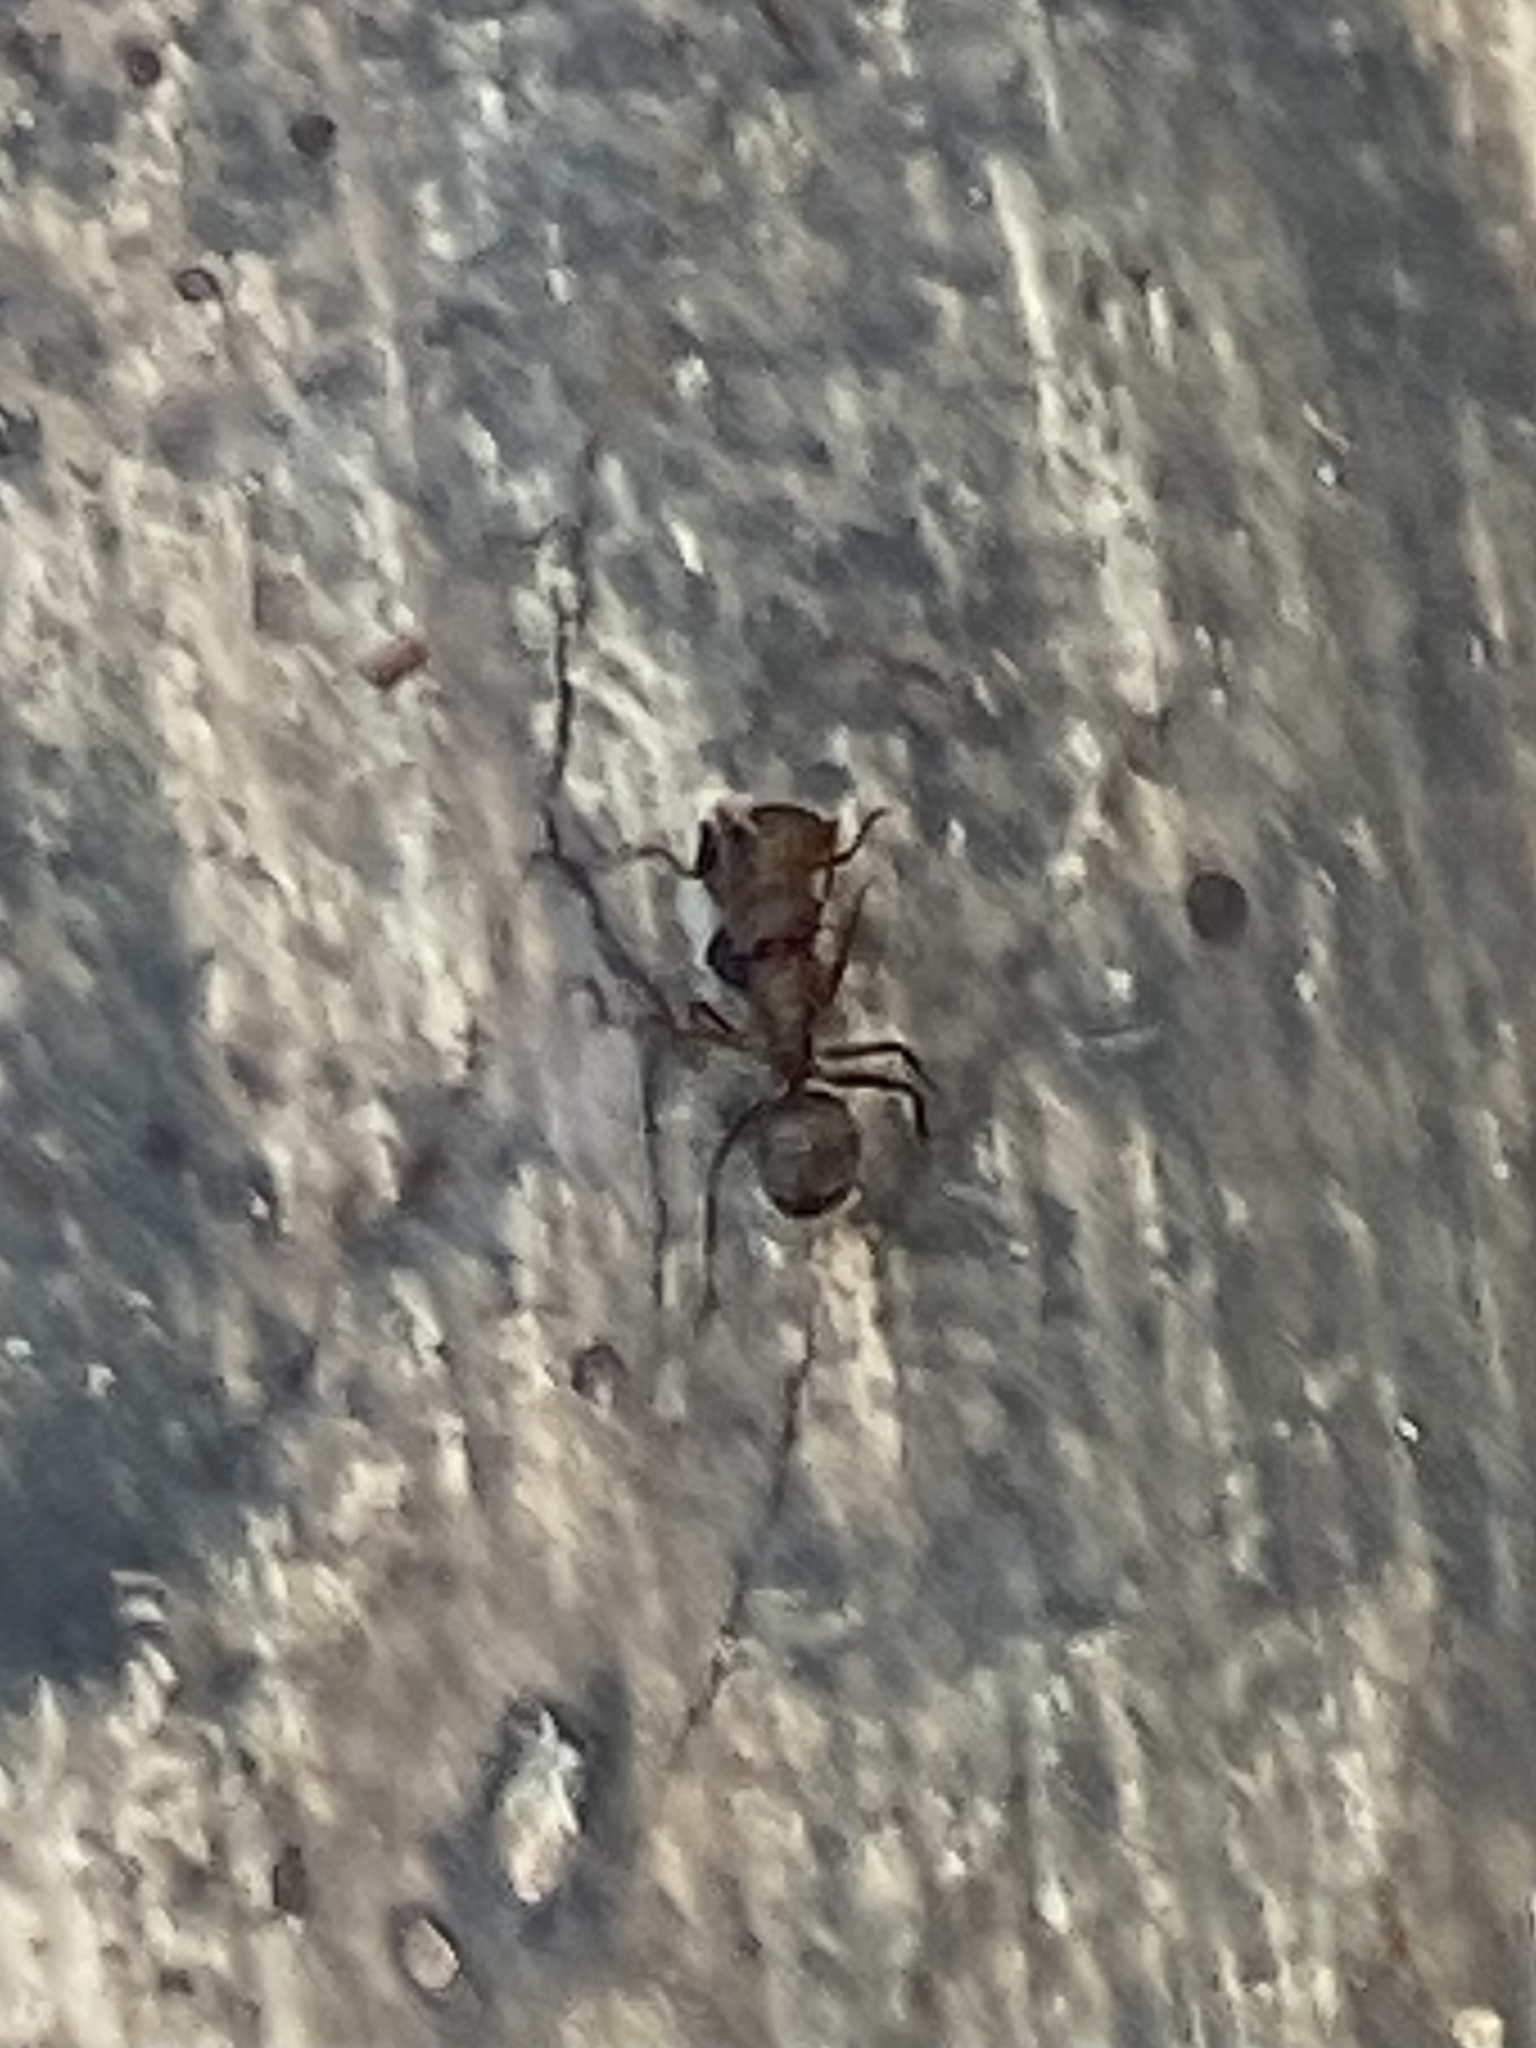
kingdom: Animalia
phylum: Arthropoda
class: Insecta
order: Hymenoptera
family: Formicidae
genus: Camponotus
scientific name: Camponotus planatus
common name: Compact carpenter ant
